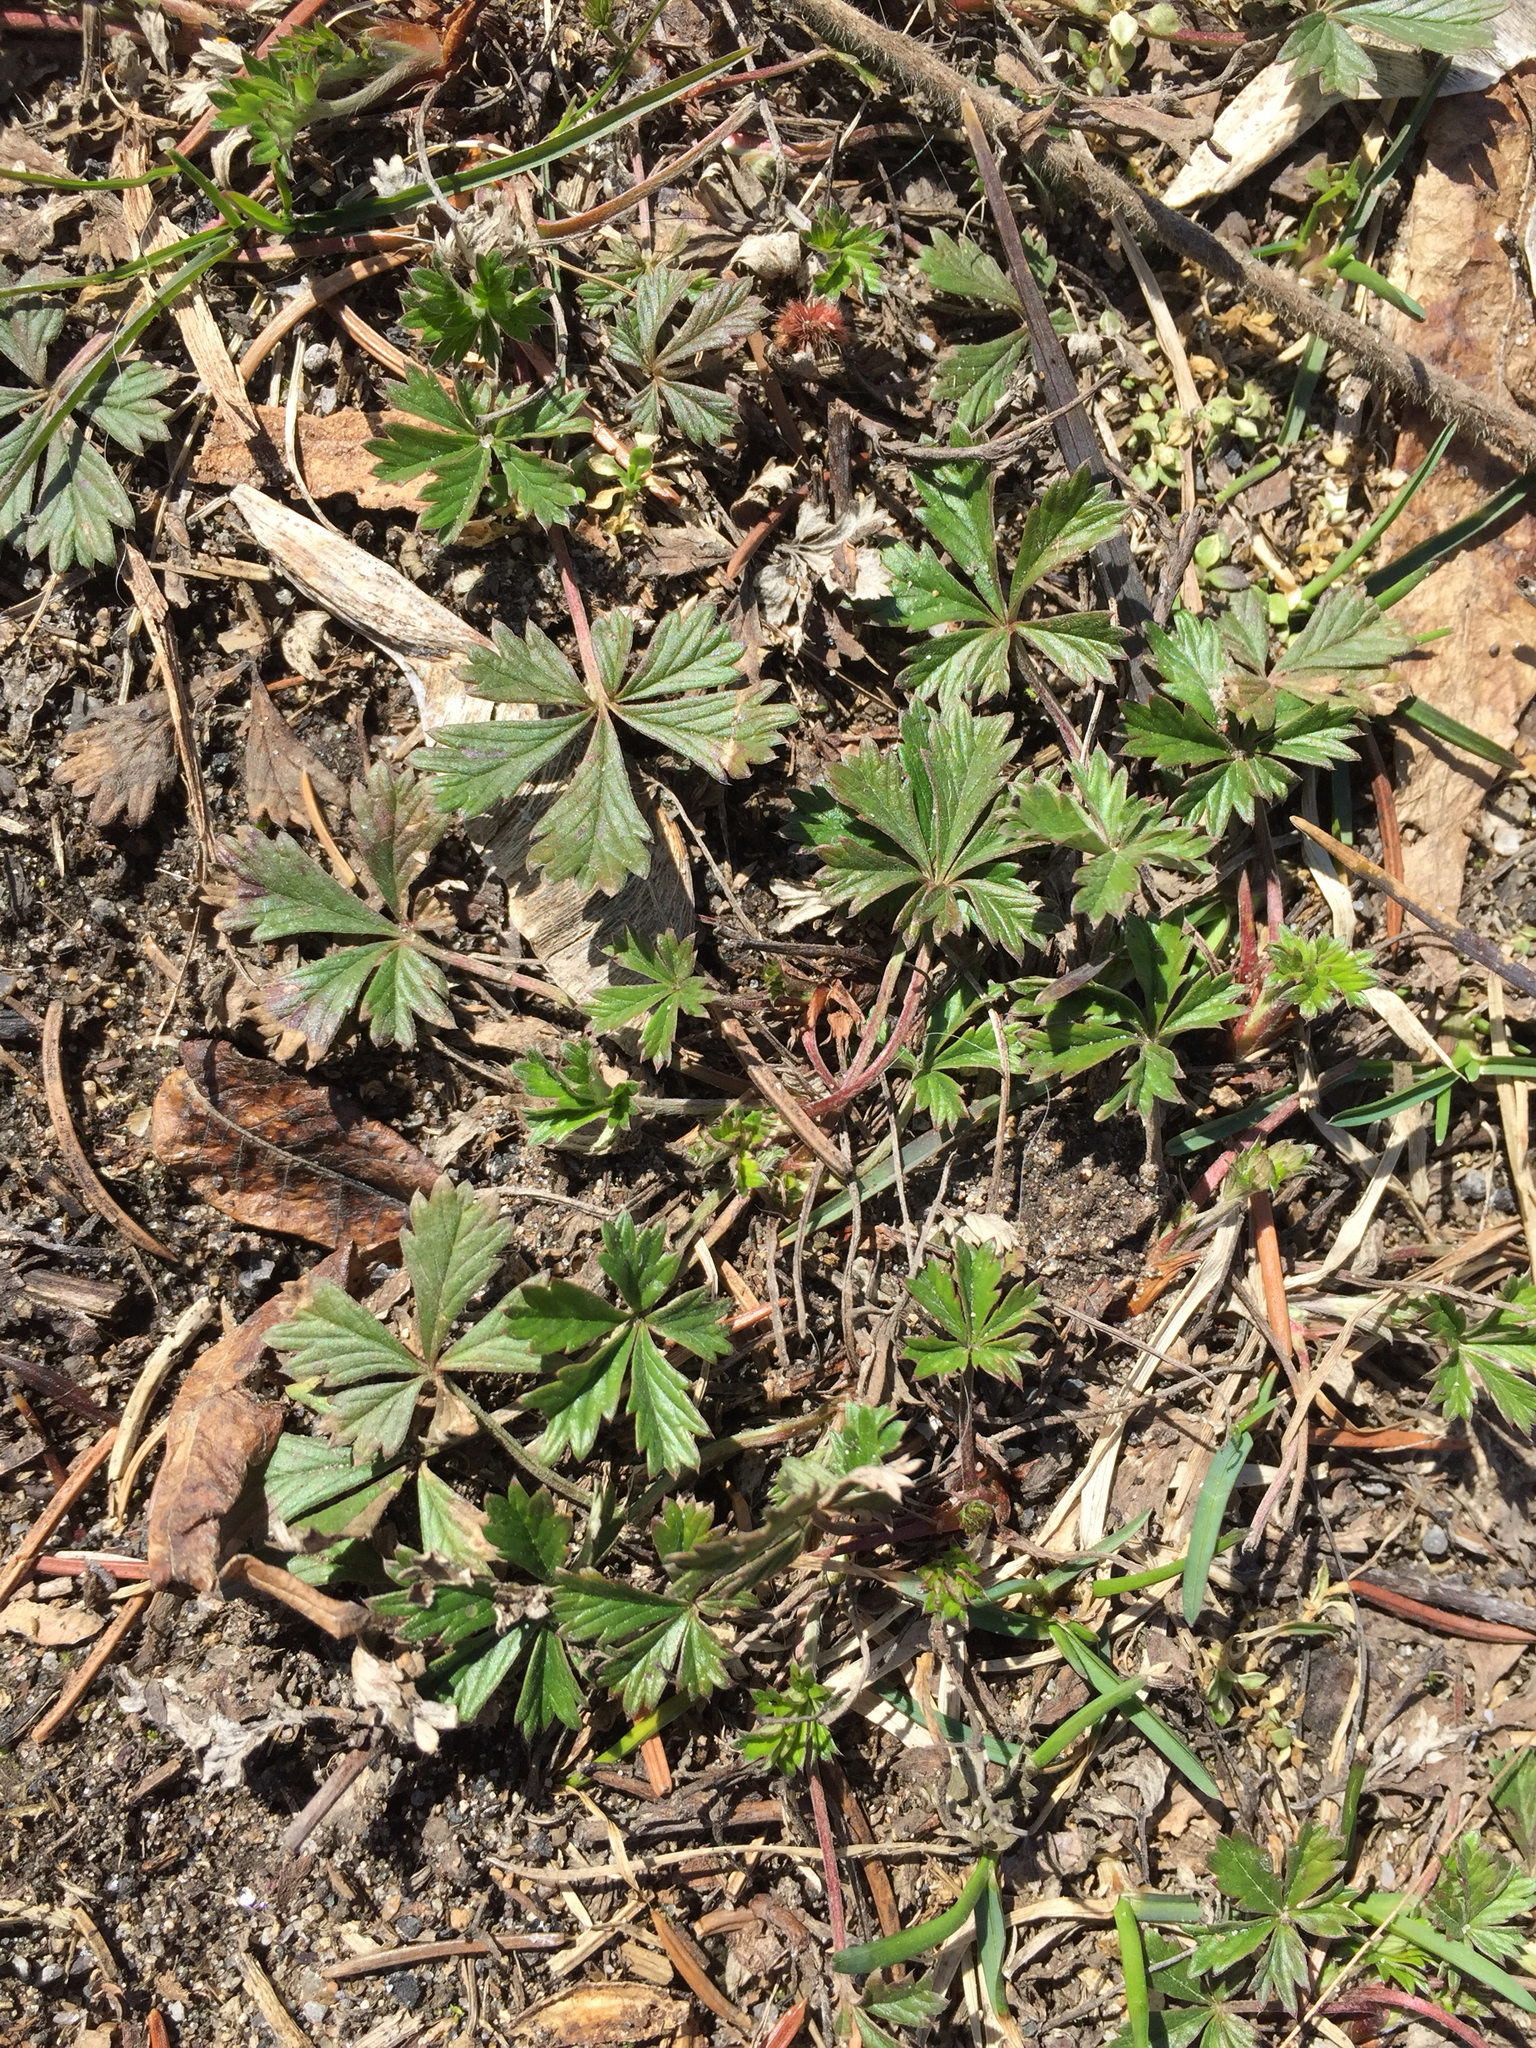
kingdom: Plantae
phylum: Tracheophyta
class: Magnoliopsida
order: Rosales
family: Rosaceae
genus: Potentilla
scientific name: Potentilla argentea
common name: Hoary cinquefoil
